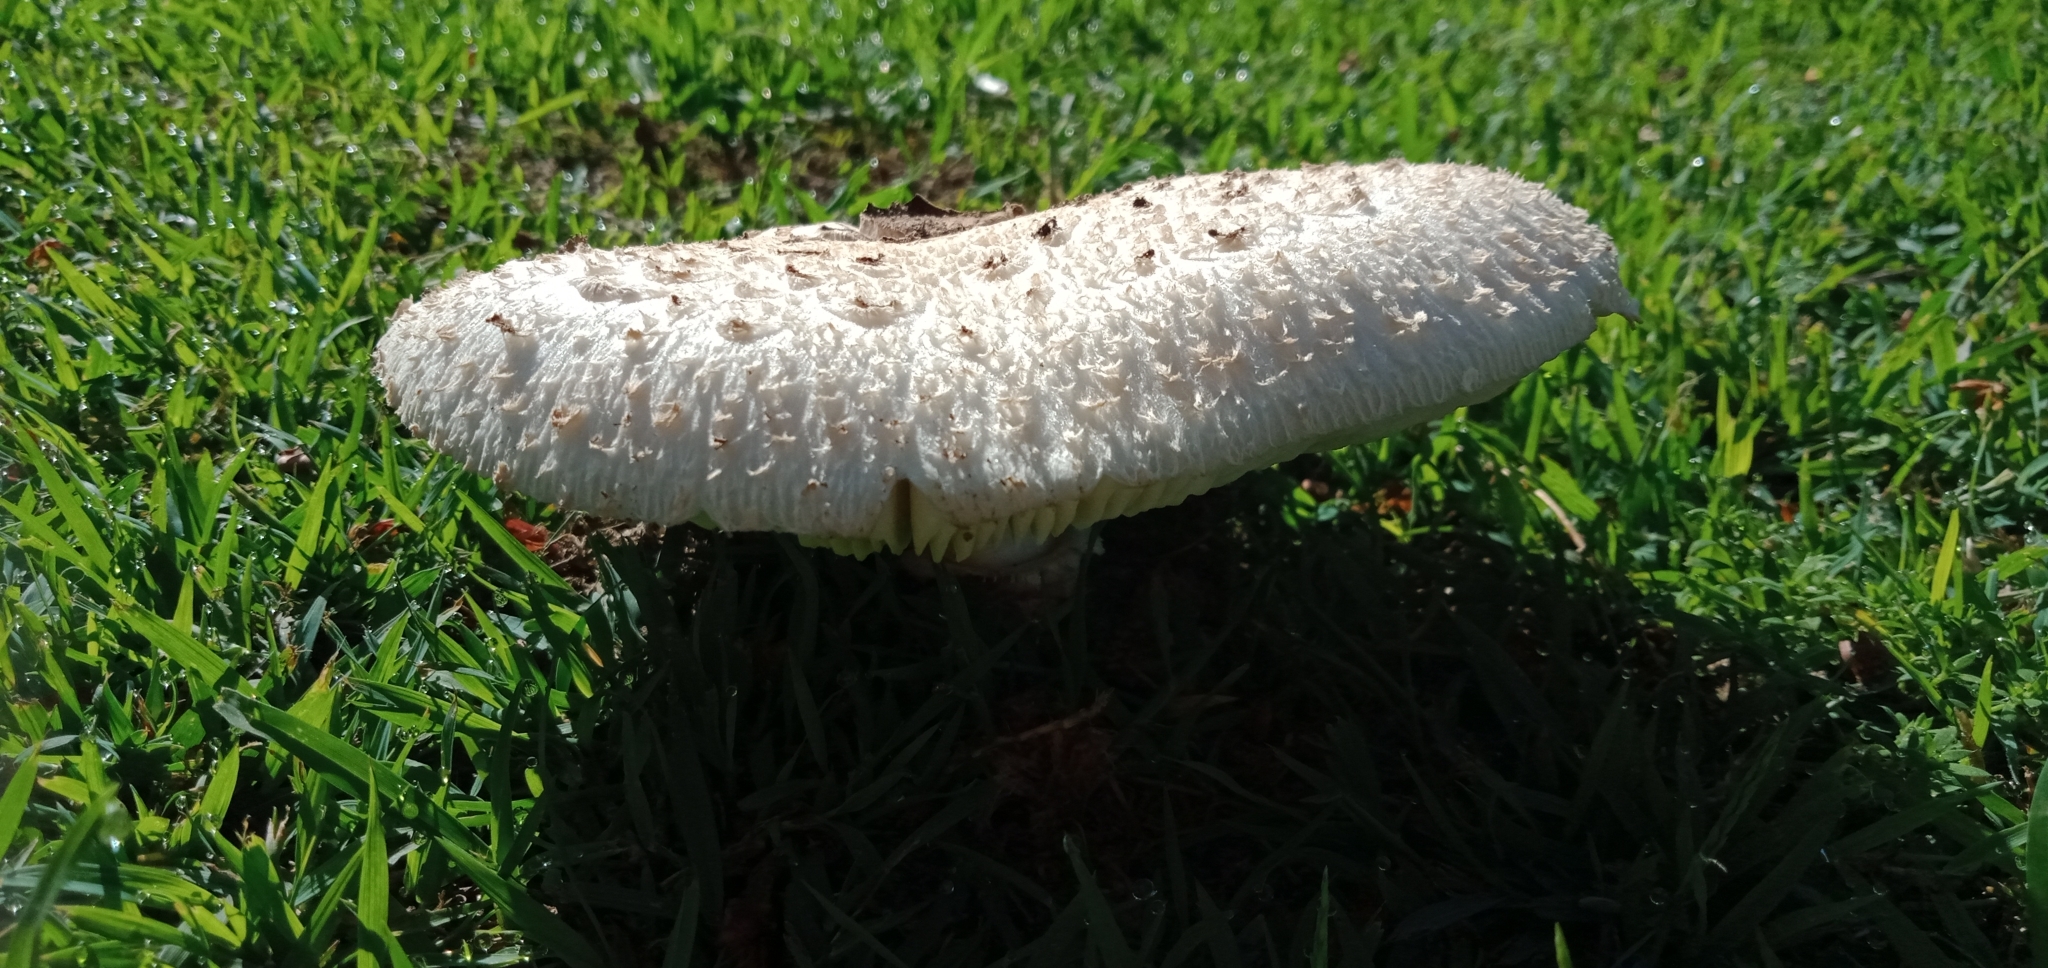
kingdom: Fungi
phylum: Basidiomycota
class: Agaricomycetes
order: Agaricales
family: Agaricaceae
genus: Chlorophyllum
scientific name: Chlorophyllum molybdites
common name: False parasol
